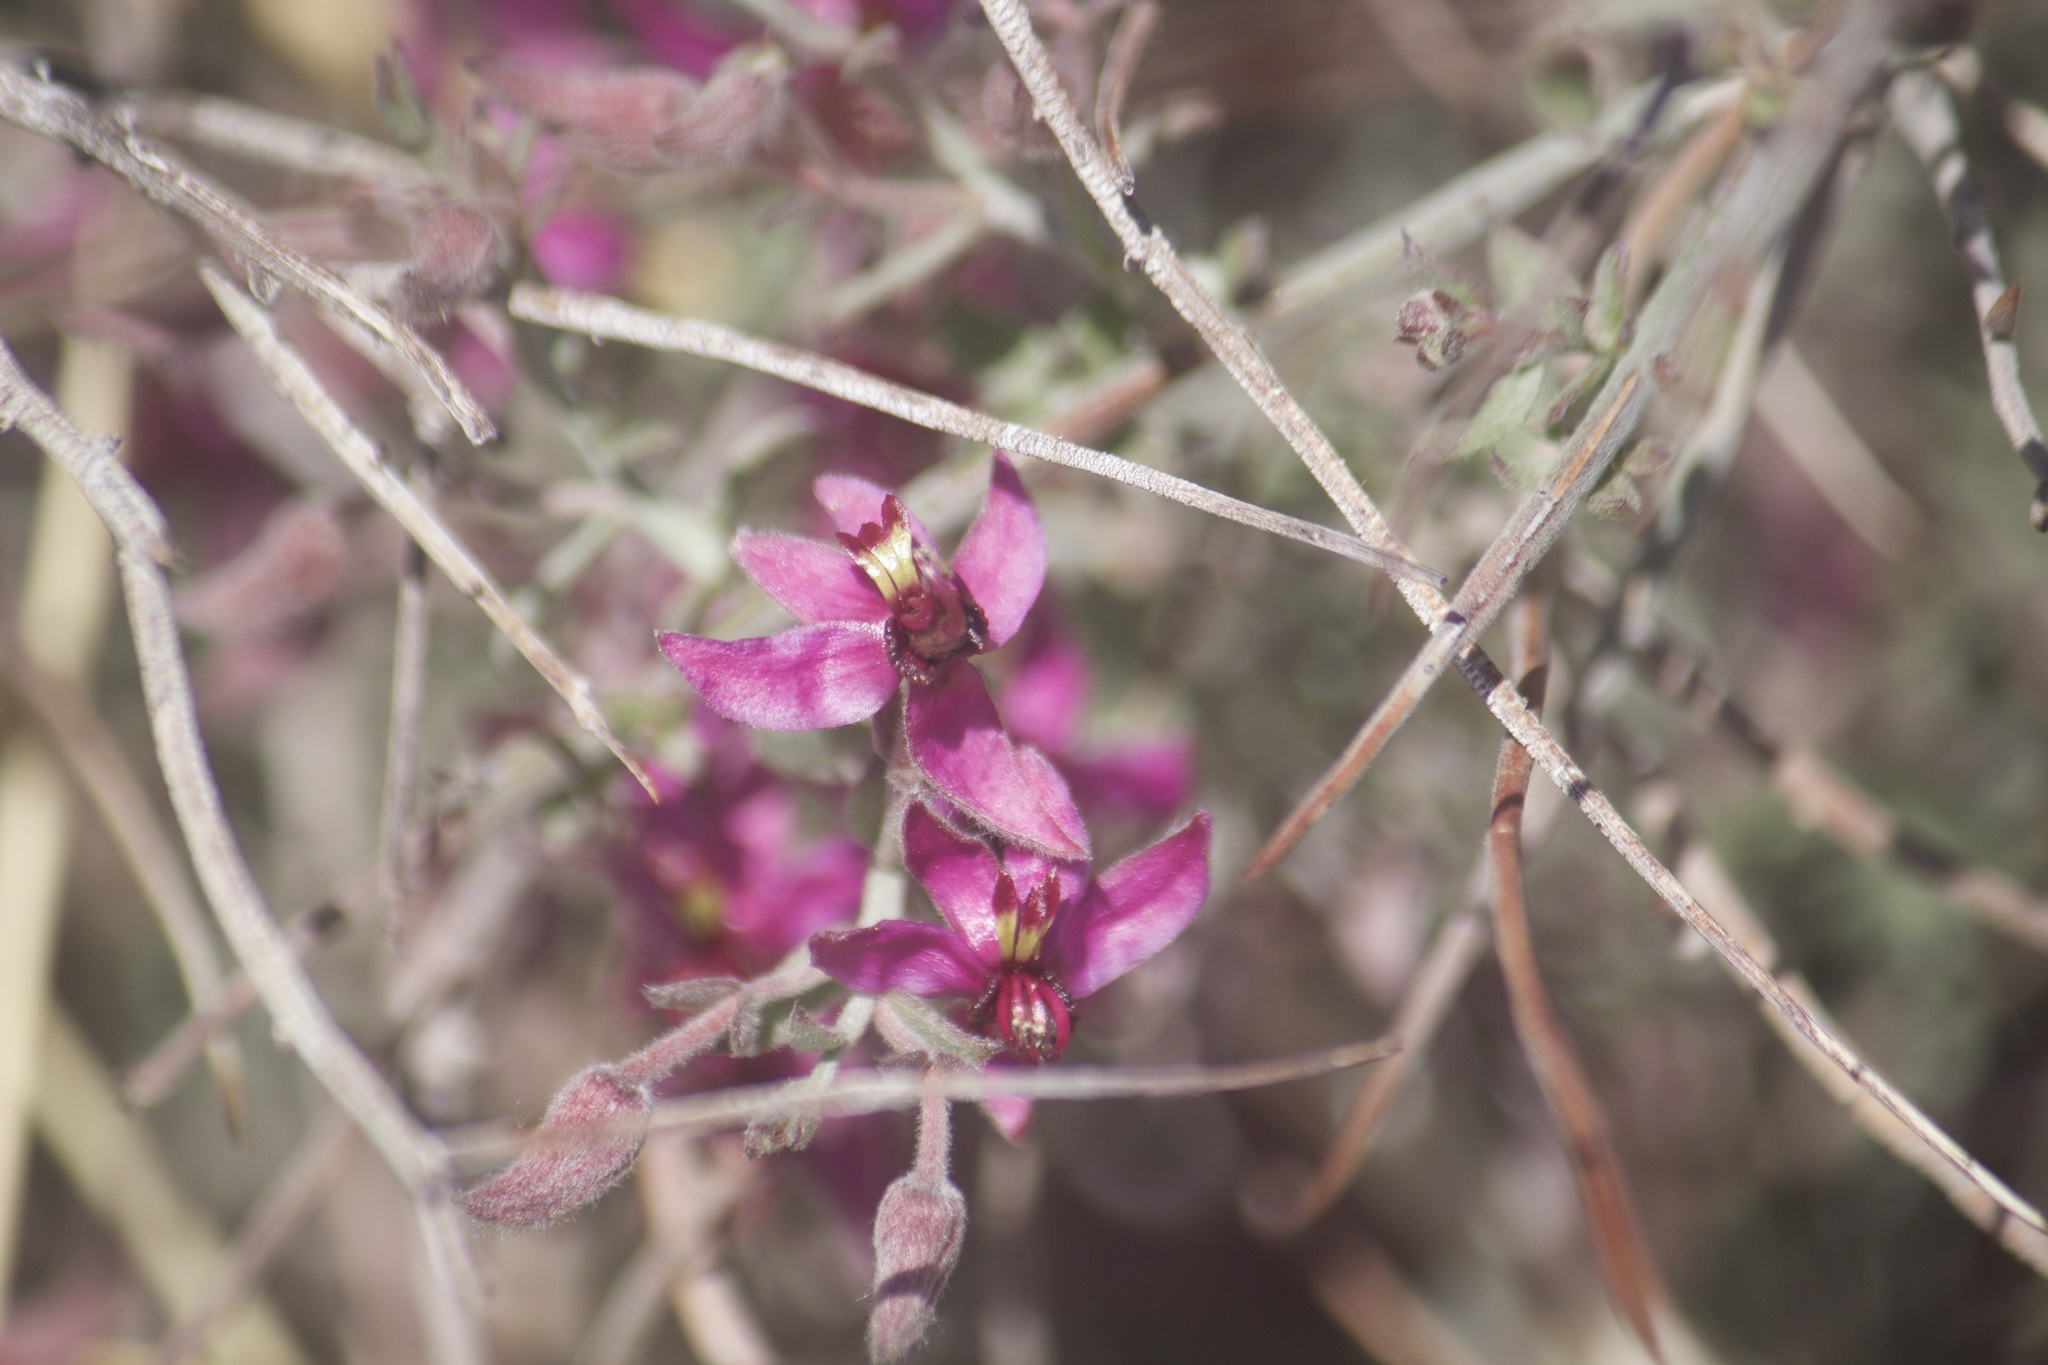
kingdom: Plantae
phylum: Tracheophyta
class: Magnoliopsida
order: Zygophyllales
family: Krameriaceae
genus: Krameria
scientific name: Krameria bicolor
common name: White ratany
